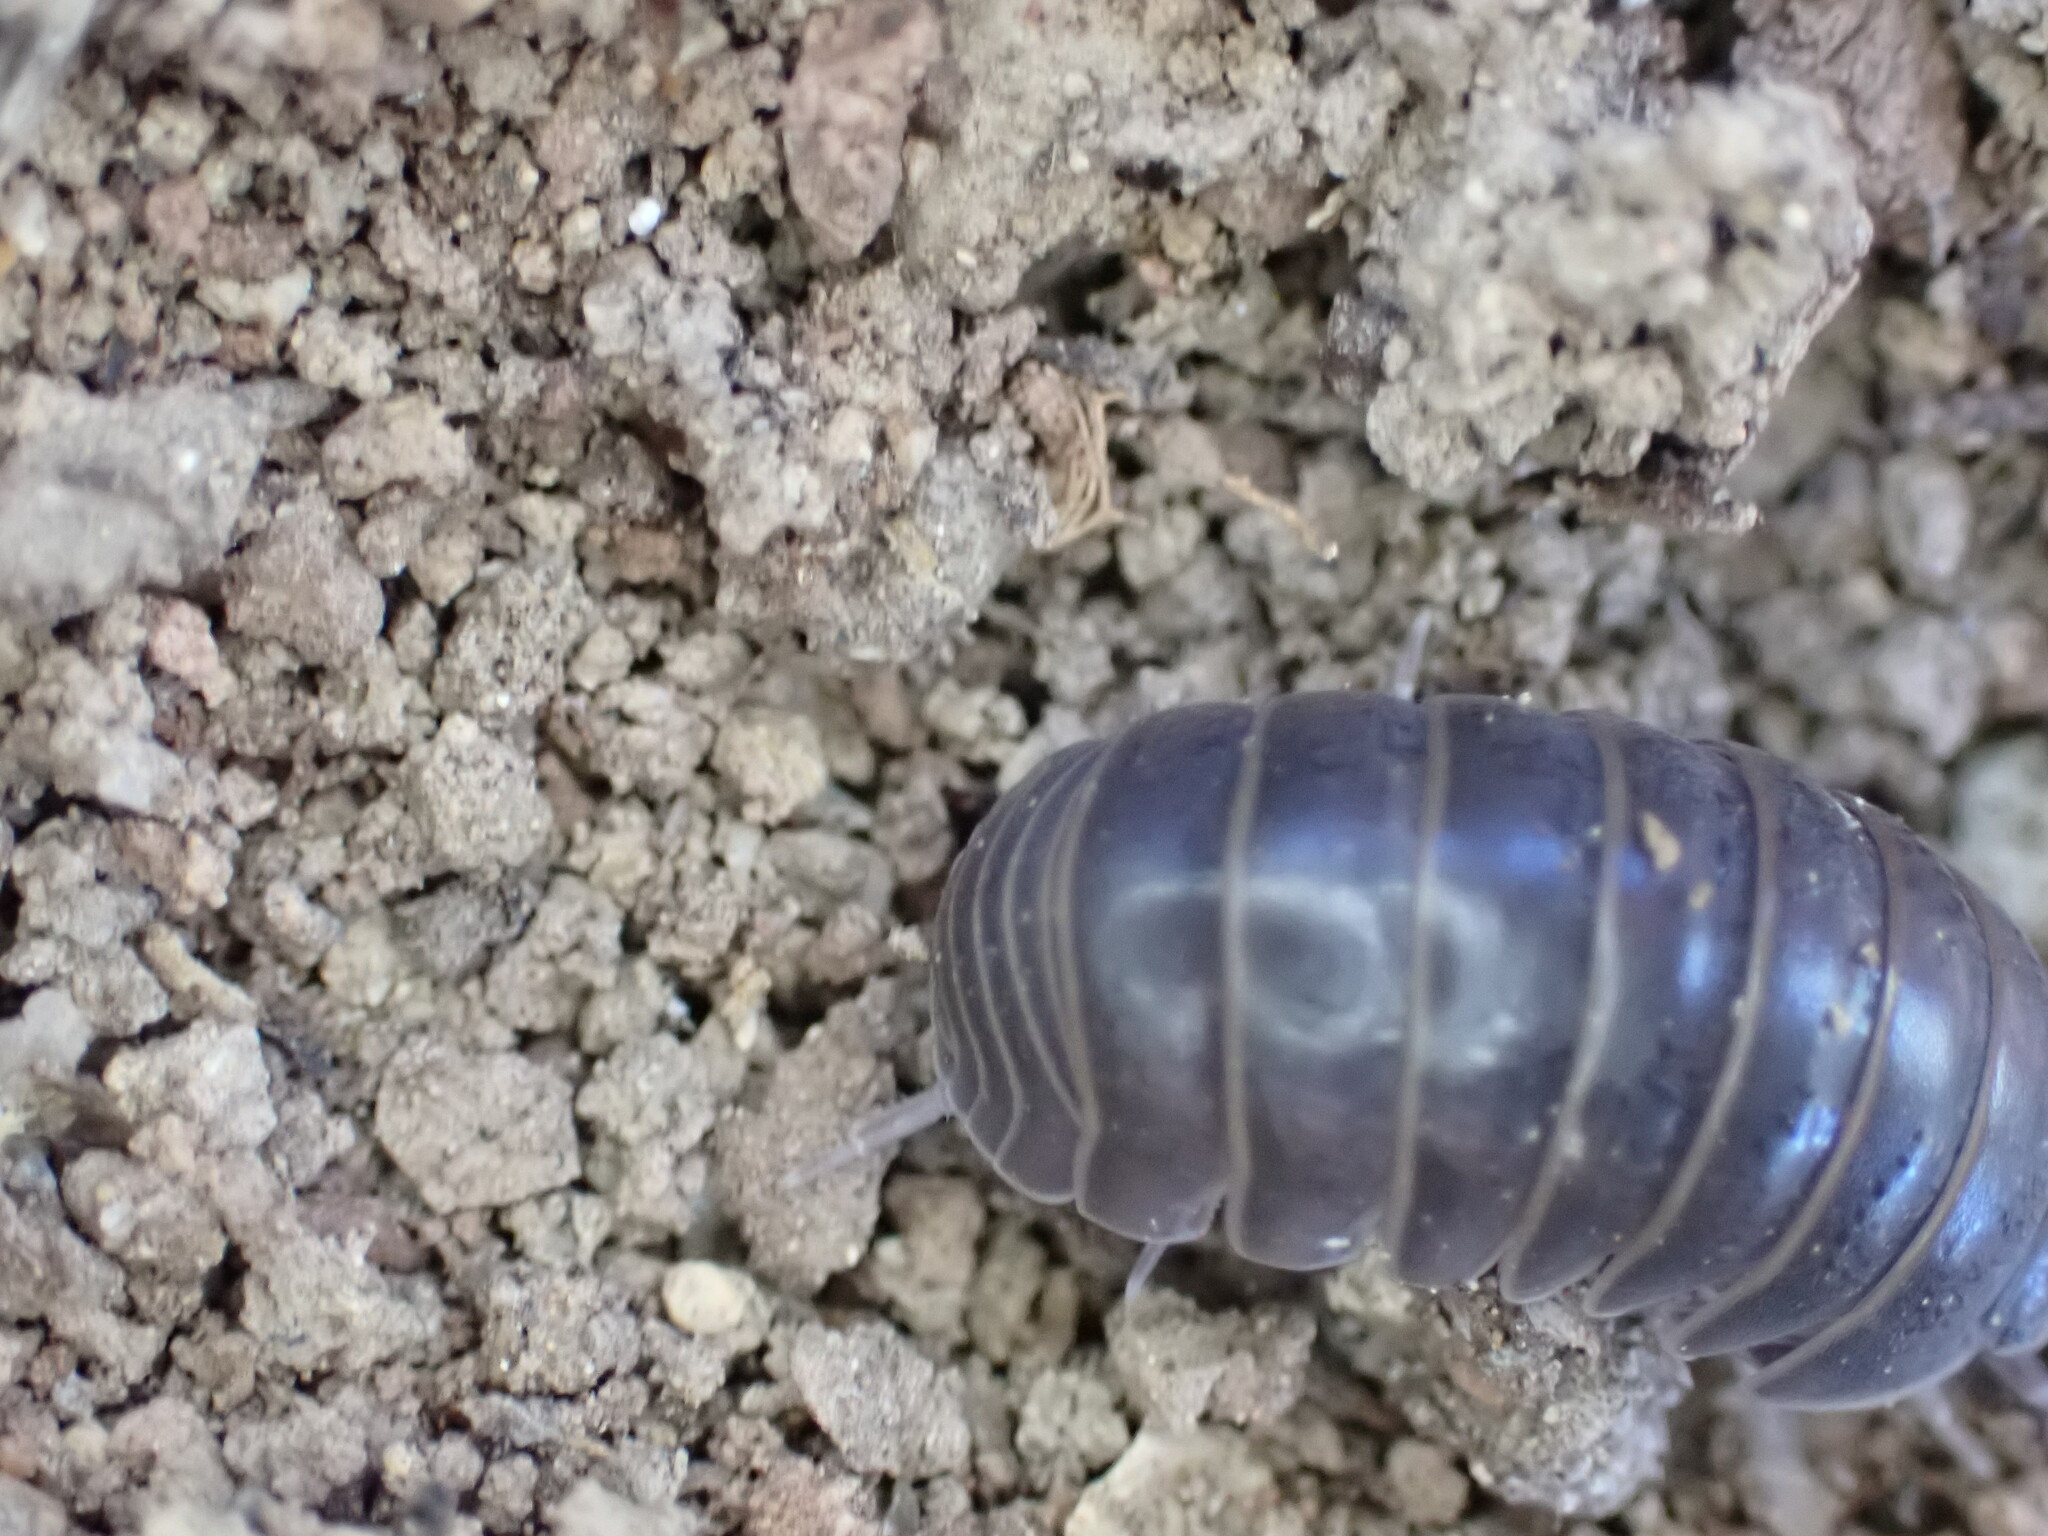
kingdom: Animalia
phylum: Arthropoda
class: Malacostraca
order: Isopoda
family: Armadillidae
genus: Armadillo
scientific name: Armadillo officinalis
